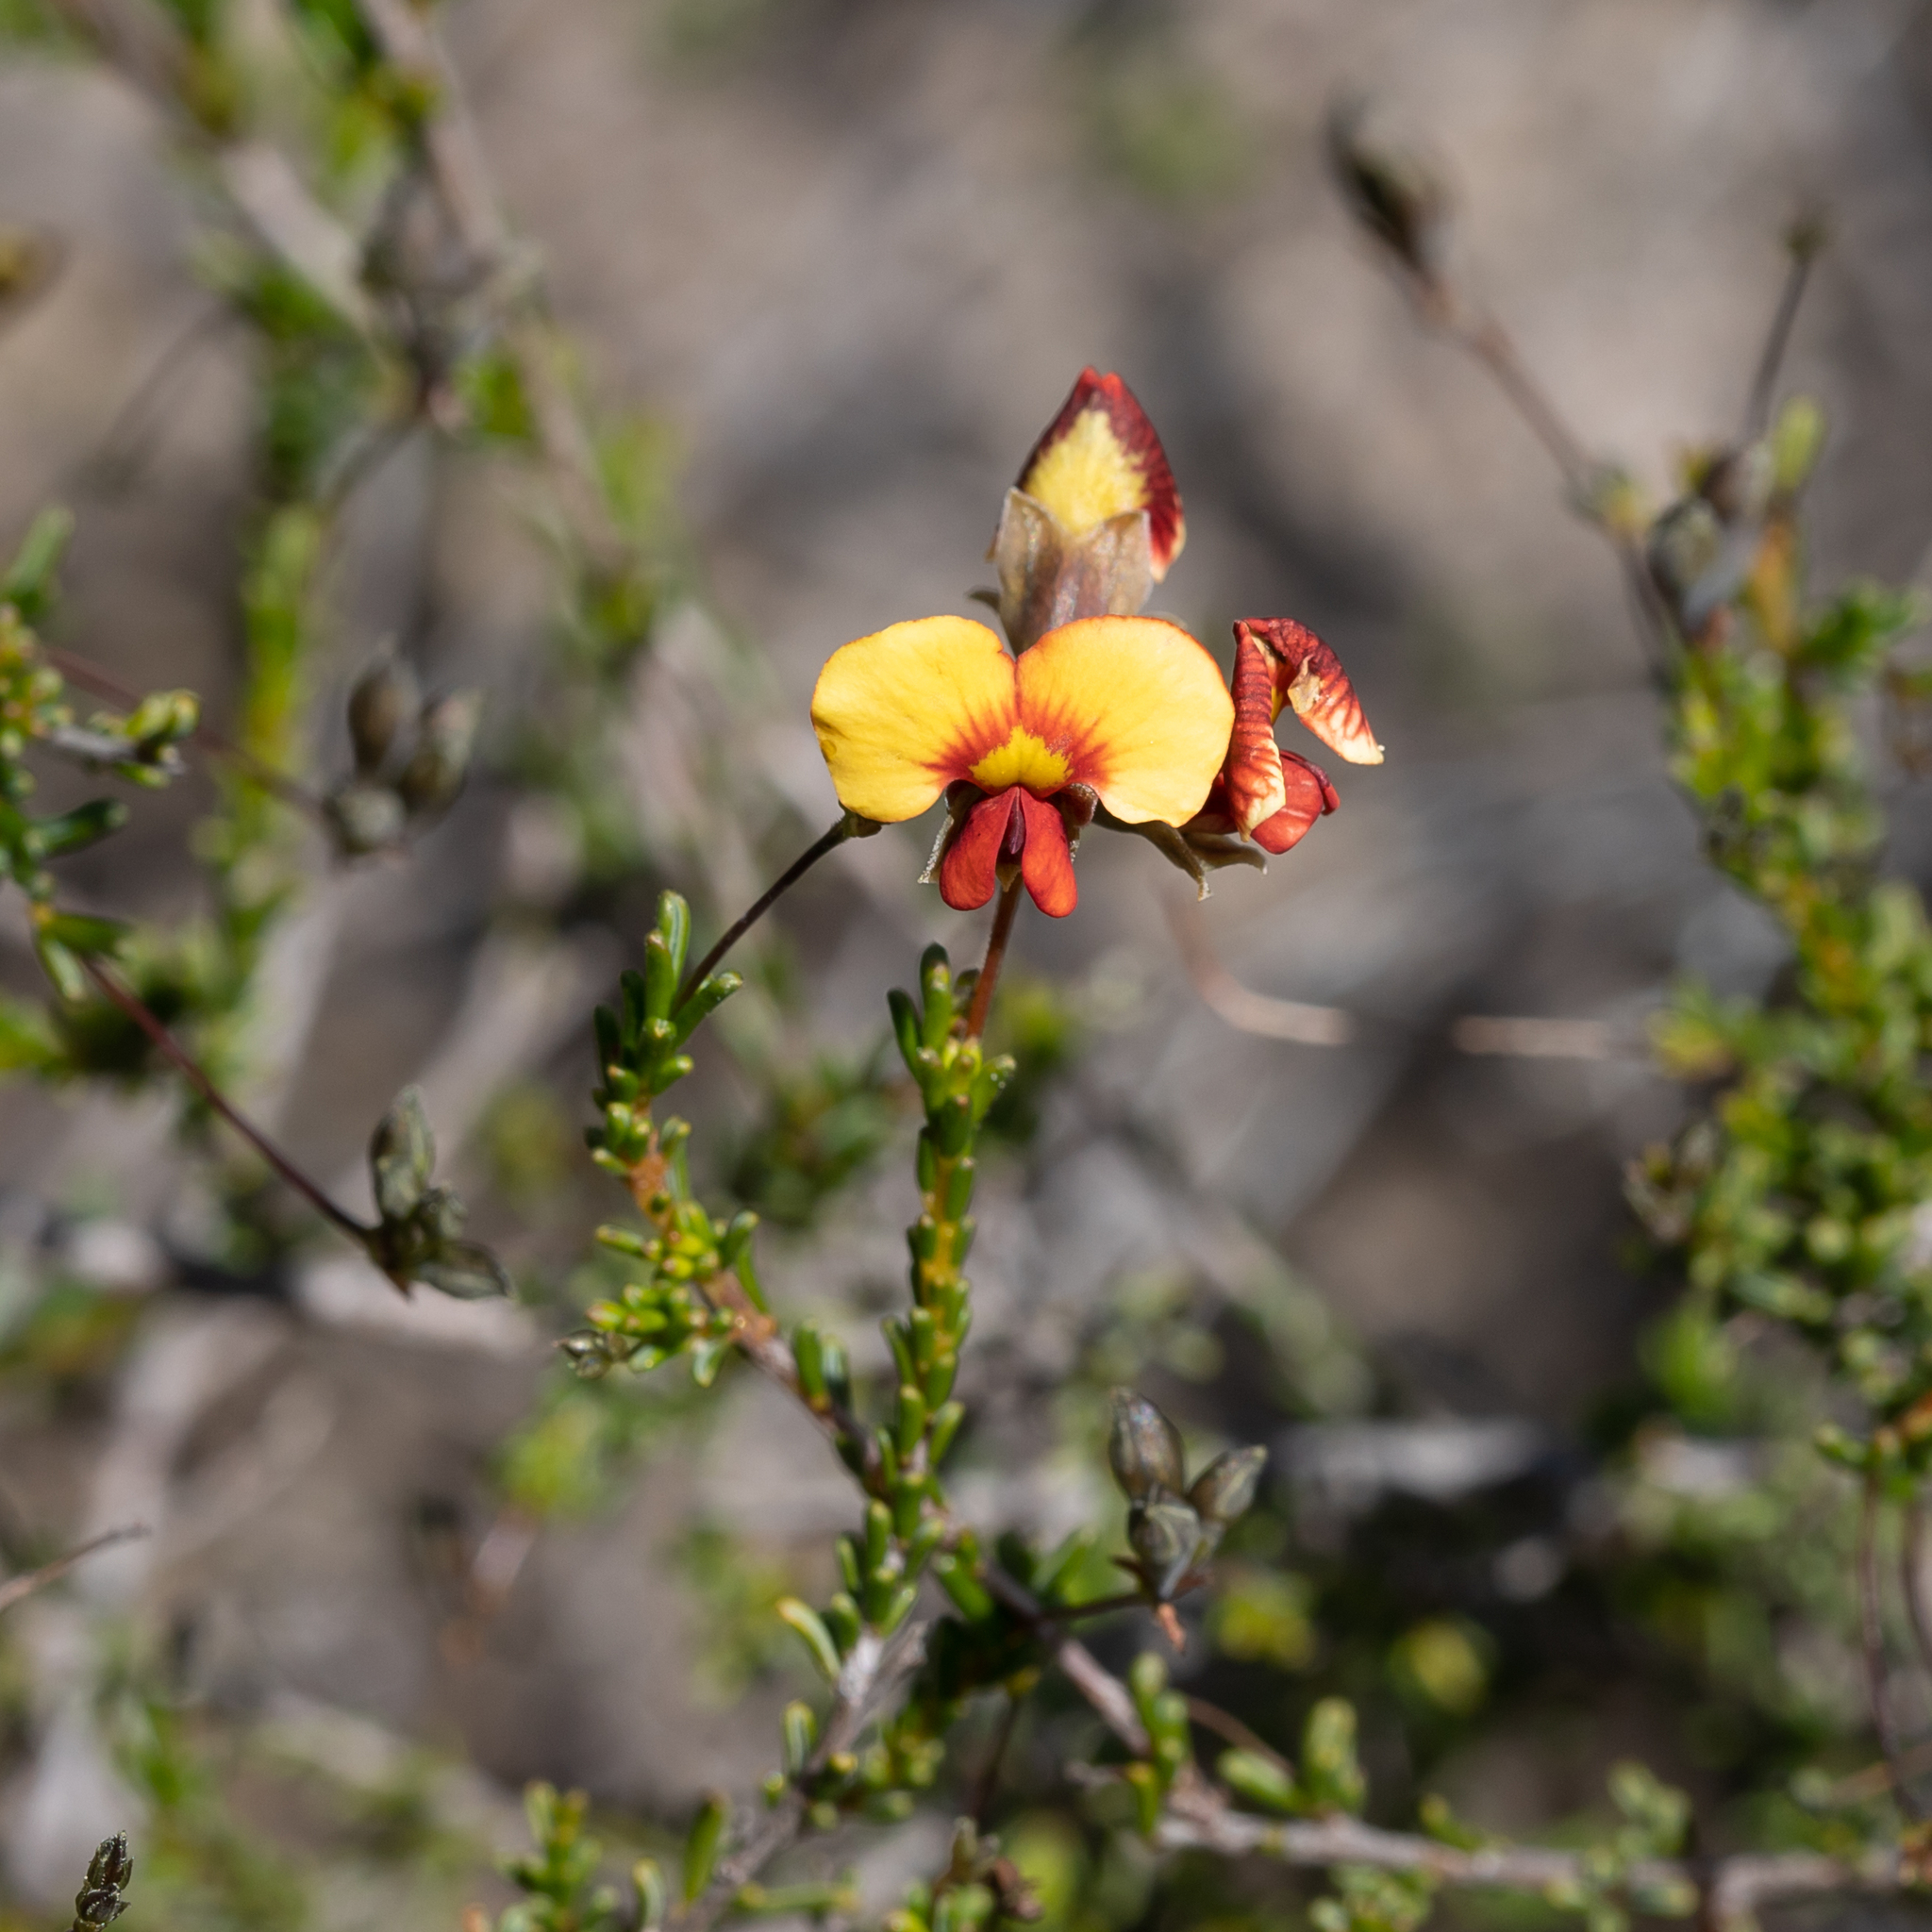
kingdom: Plantae
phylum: Tracheophyta
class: Magnoliopsida
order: Fabales
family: Fabaceae
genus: Dillwynia
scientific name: Dillwynia hispida
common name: Red parrot-pea
